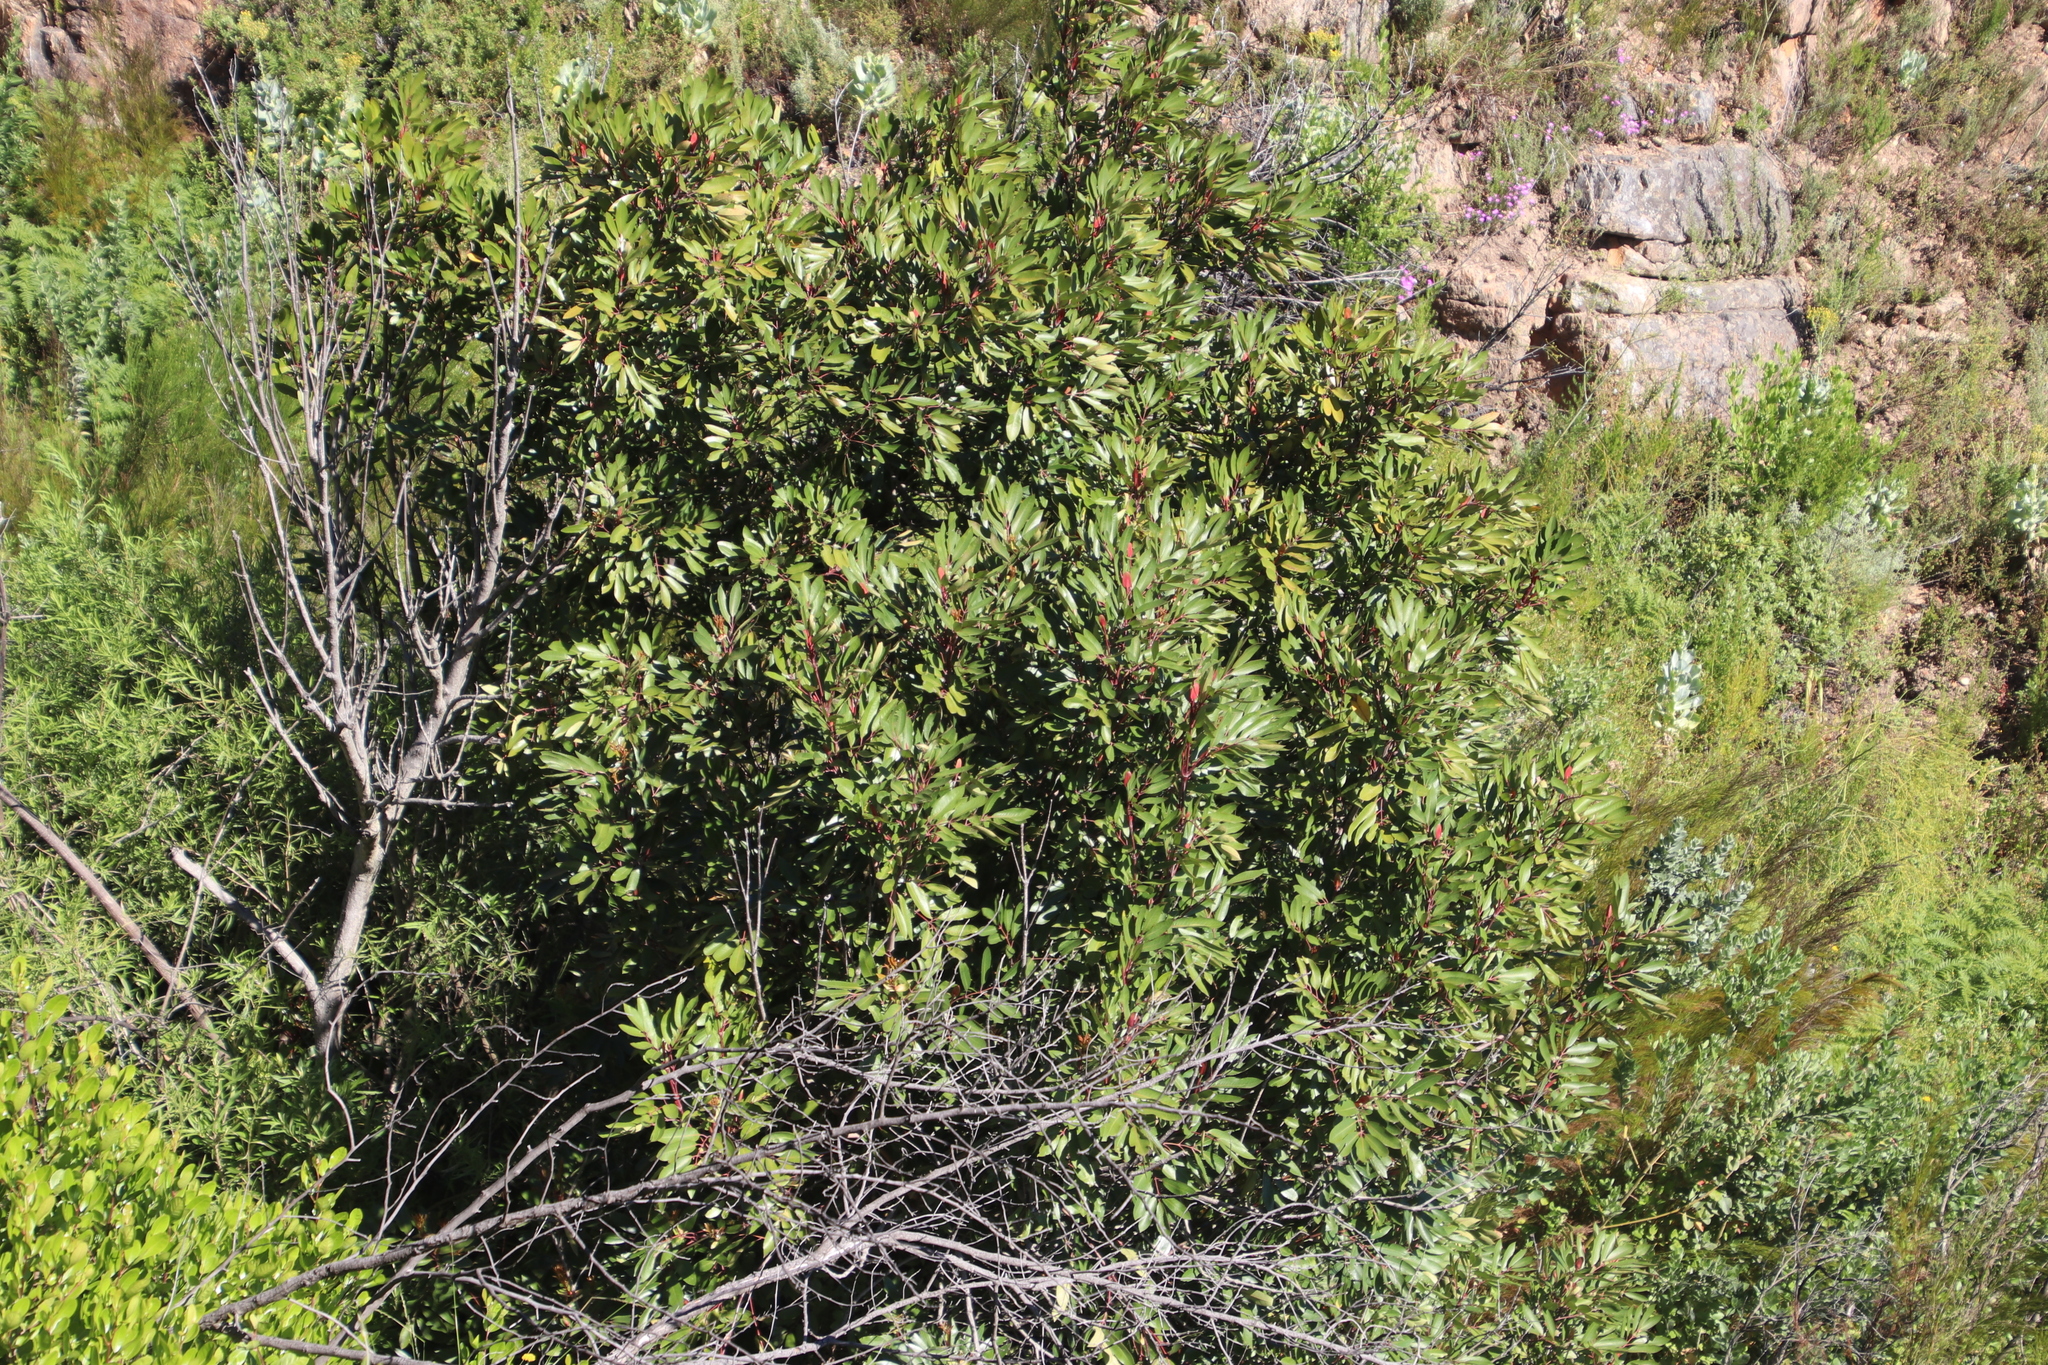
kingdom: Plantae
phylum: Tracheophyta
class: Magnoliopsida
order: Oxalidales
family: Cunoniaceae
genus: Cunonia
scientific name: Cunonia capensis
